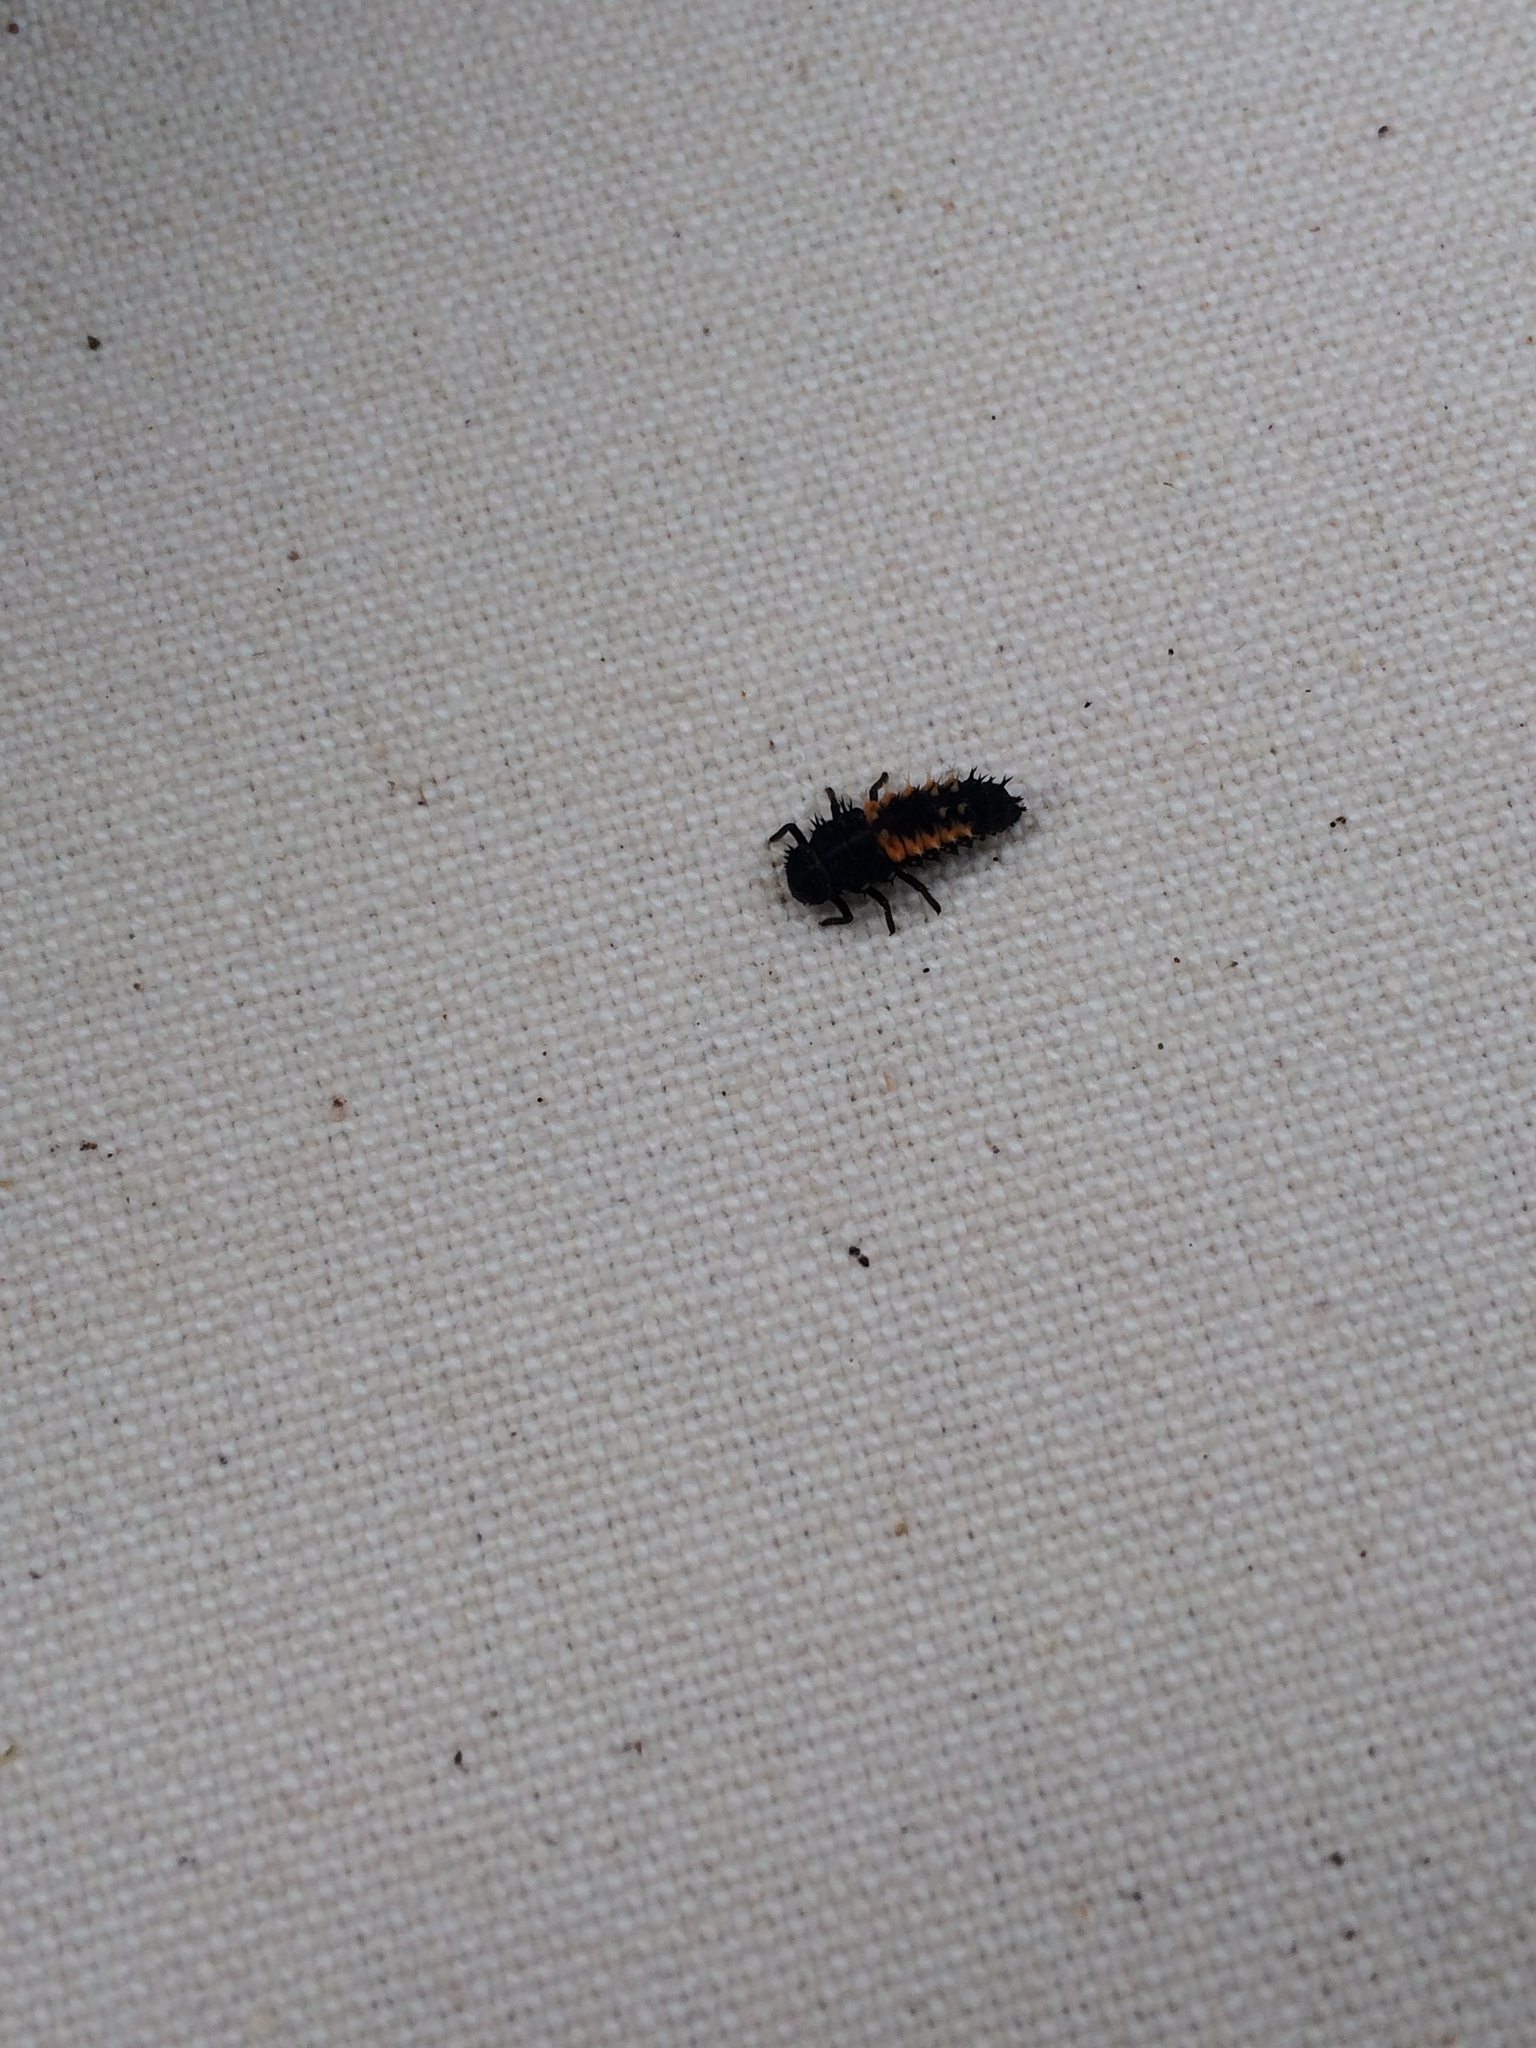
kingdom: Animalia
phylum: Arthropoda
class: Insecta
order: Coleoptera
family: Coccinellidae
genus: Harmonia
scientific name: Harmonia axyridis
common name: Harlequin ladybird
